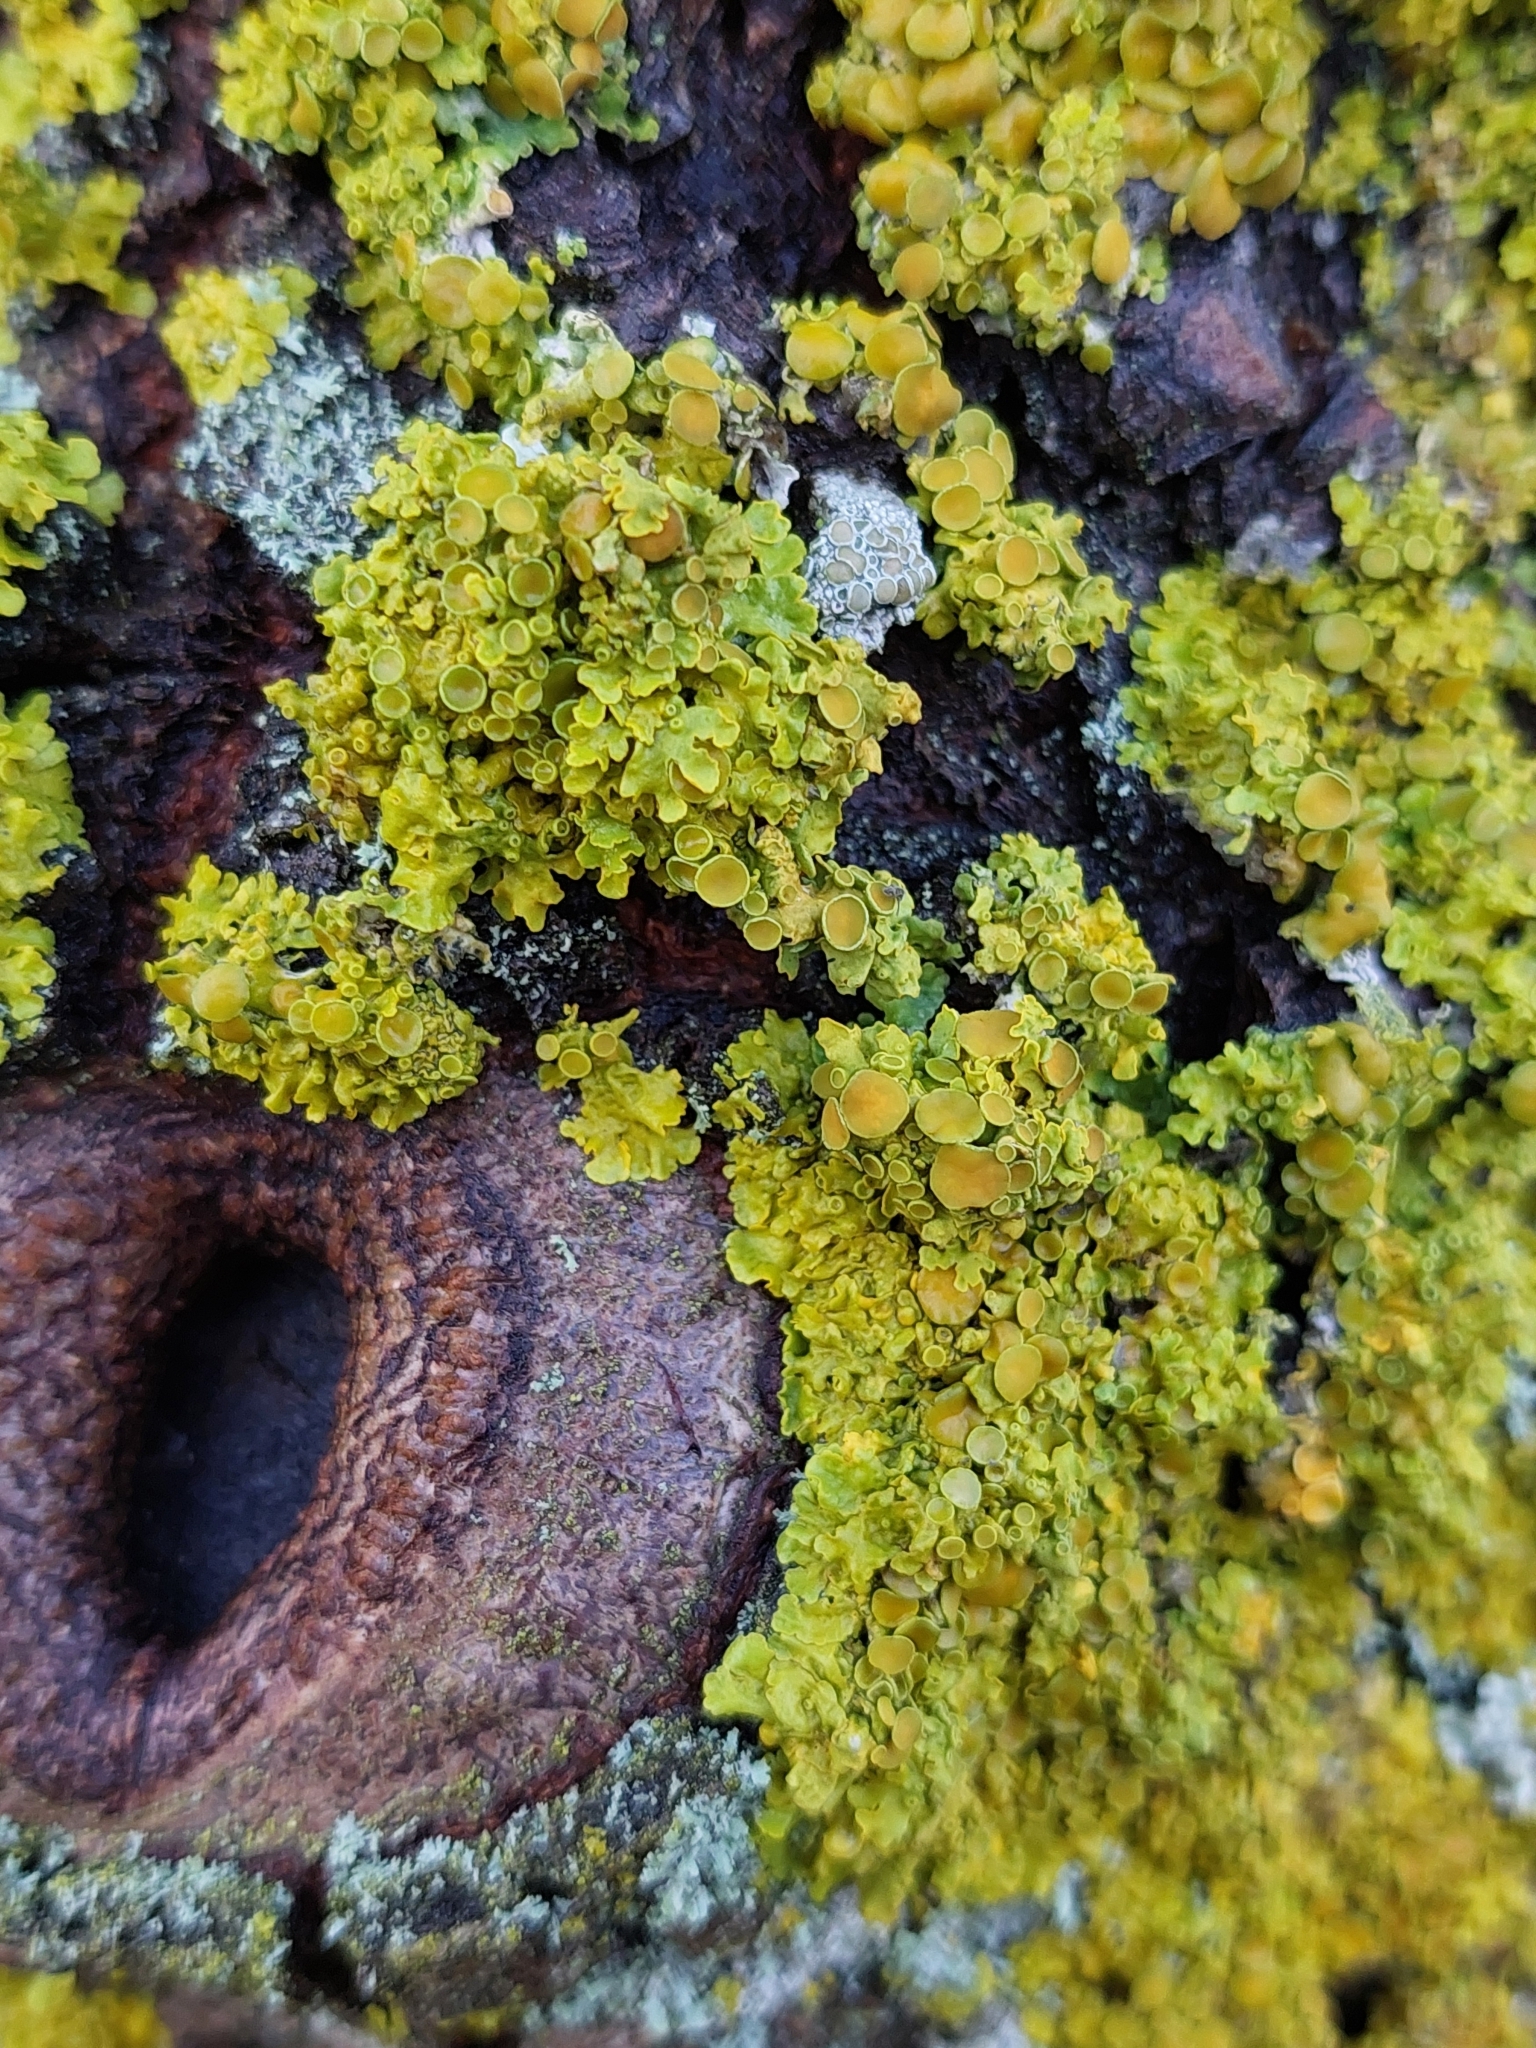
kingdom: Fungi
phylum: Ascomycota
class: Lecanoromycetes
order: Teloschistales
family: Teloschistaceae
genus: Xanthoria
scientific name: Xanthoria parietina
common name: Common orange lichen
